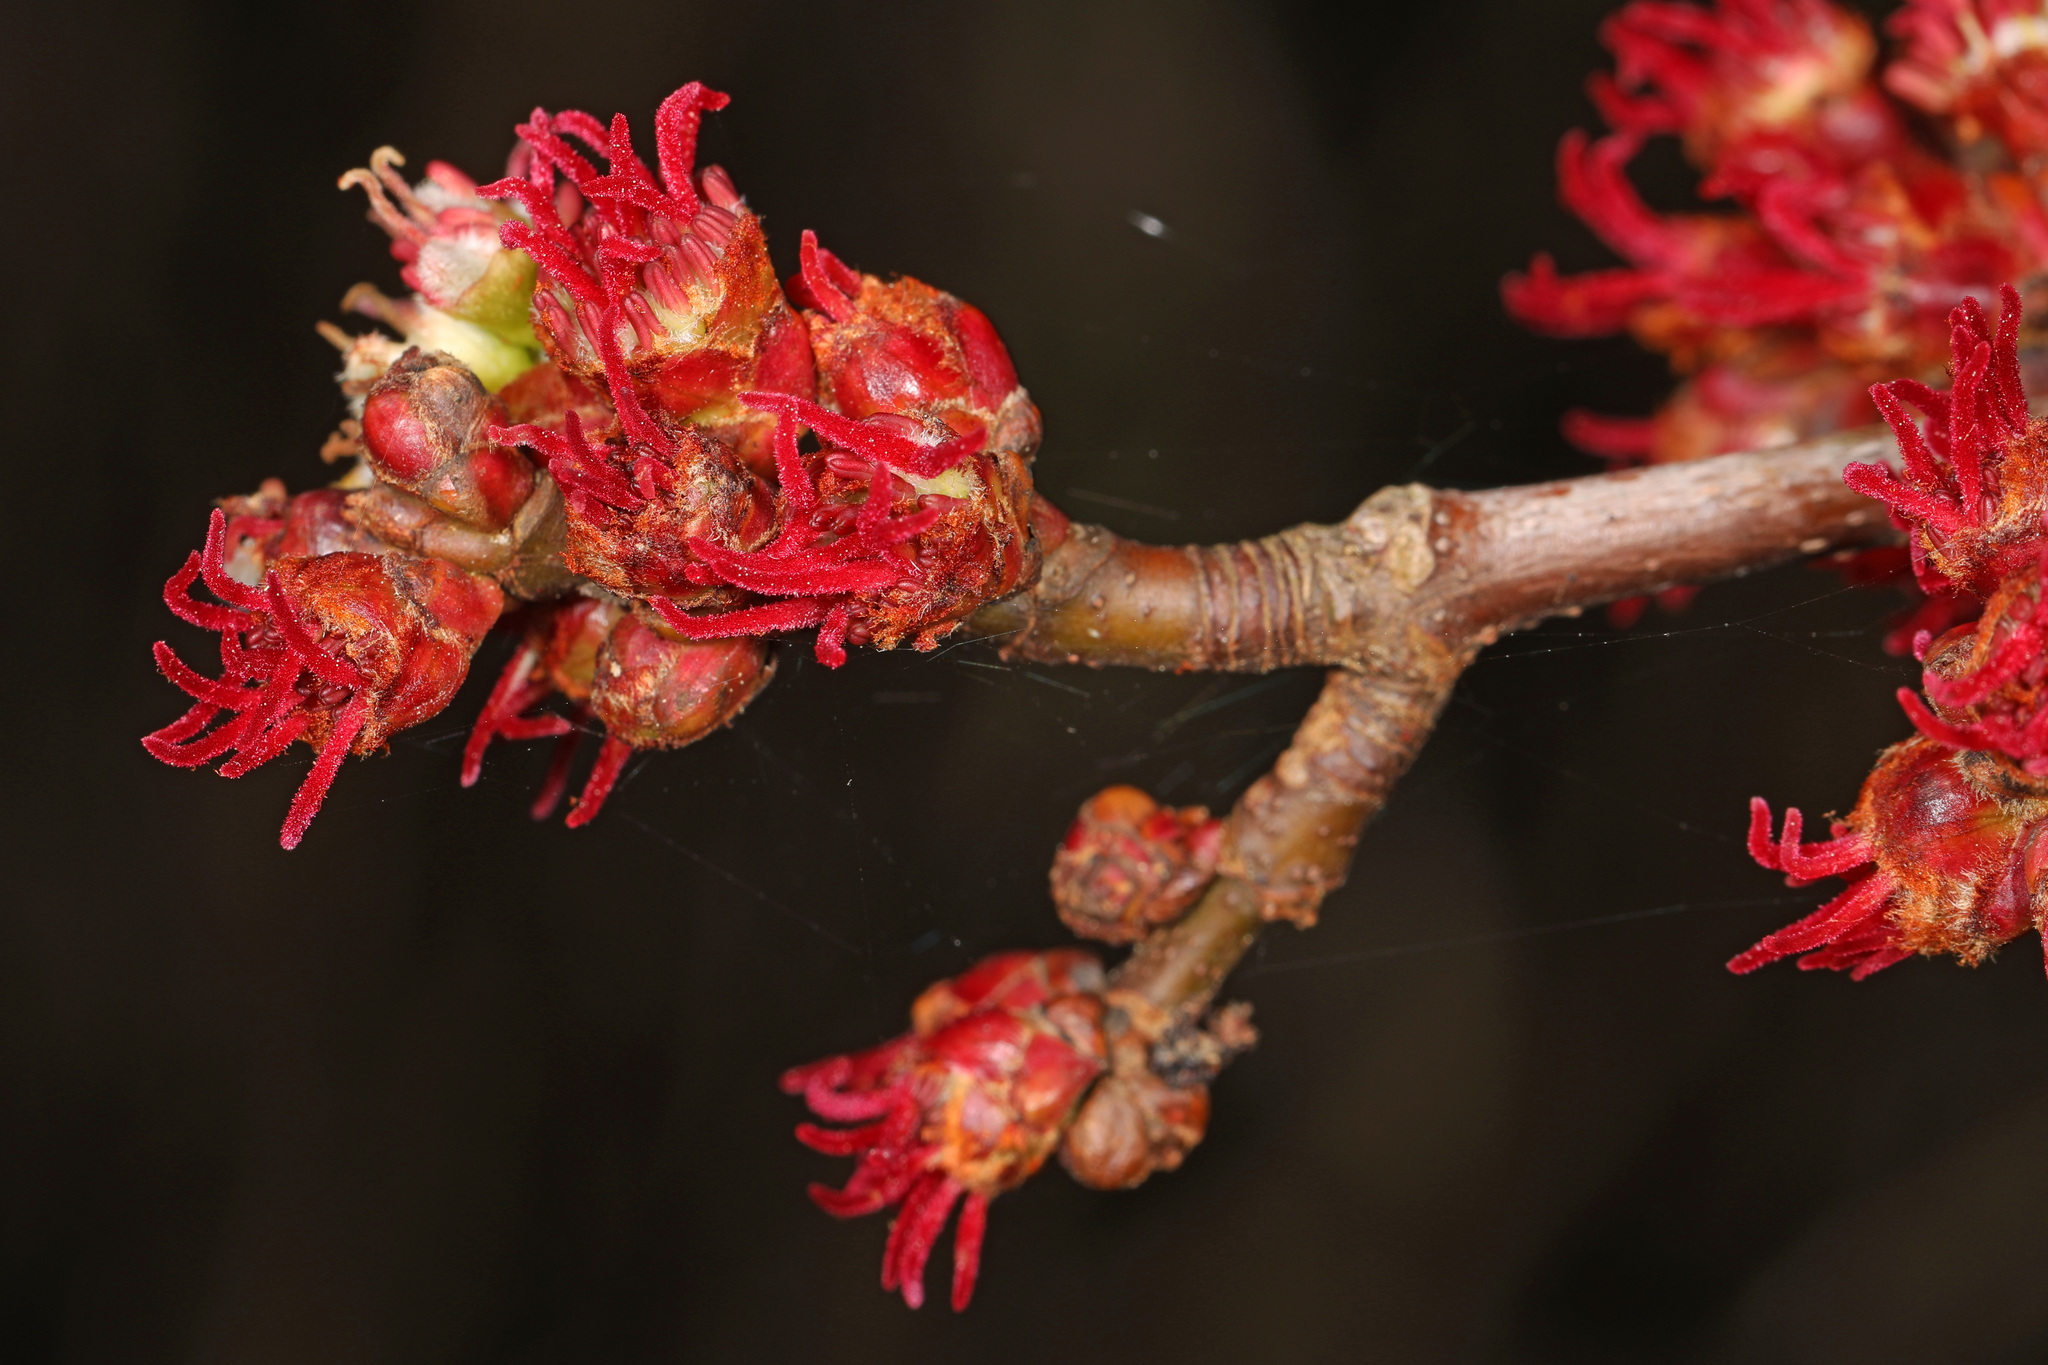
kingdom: Plantae
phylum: Tracheophyta
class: Magnoliopsida
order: Sapindales
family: Sapindaceae
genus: Acer
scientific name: Acer rubrum
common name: Red maple
